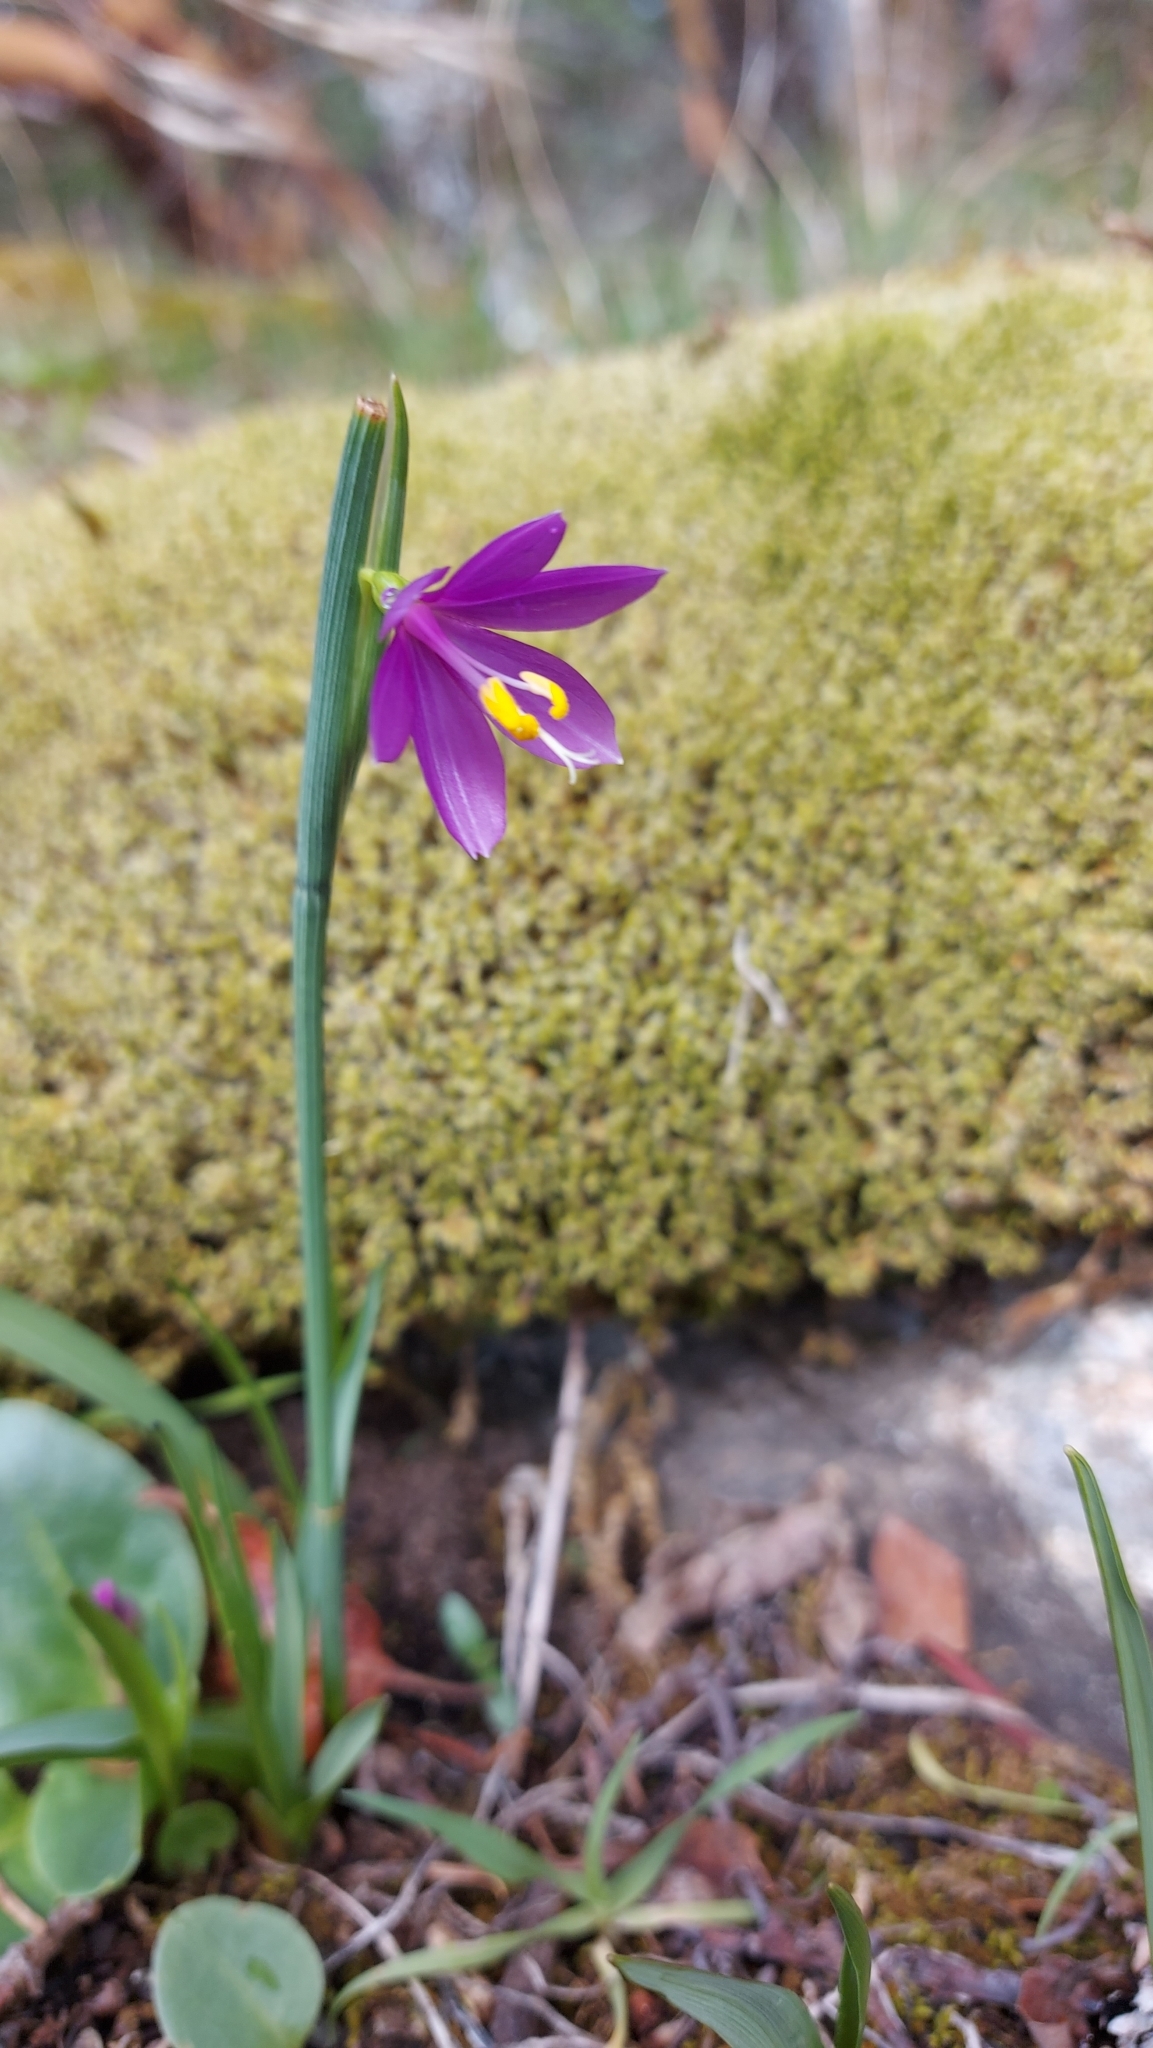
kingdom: Plantae
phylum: Tracheophyta
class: Liliopsida
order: Asparagales
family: Iridaceae
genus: Olsynium
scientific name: Olsynium douglasii
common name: Douglas' grasswidow
